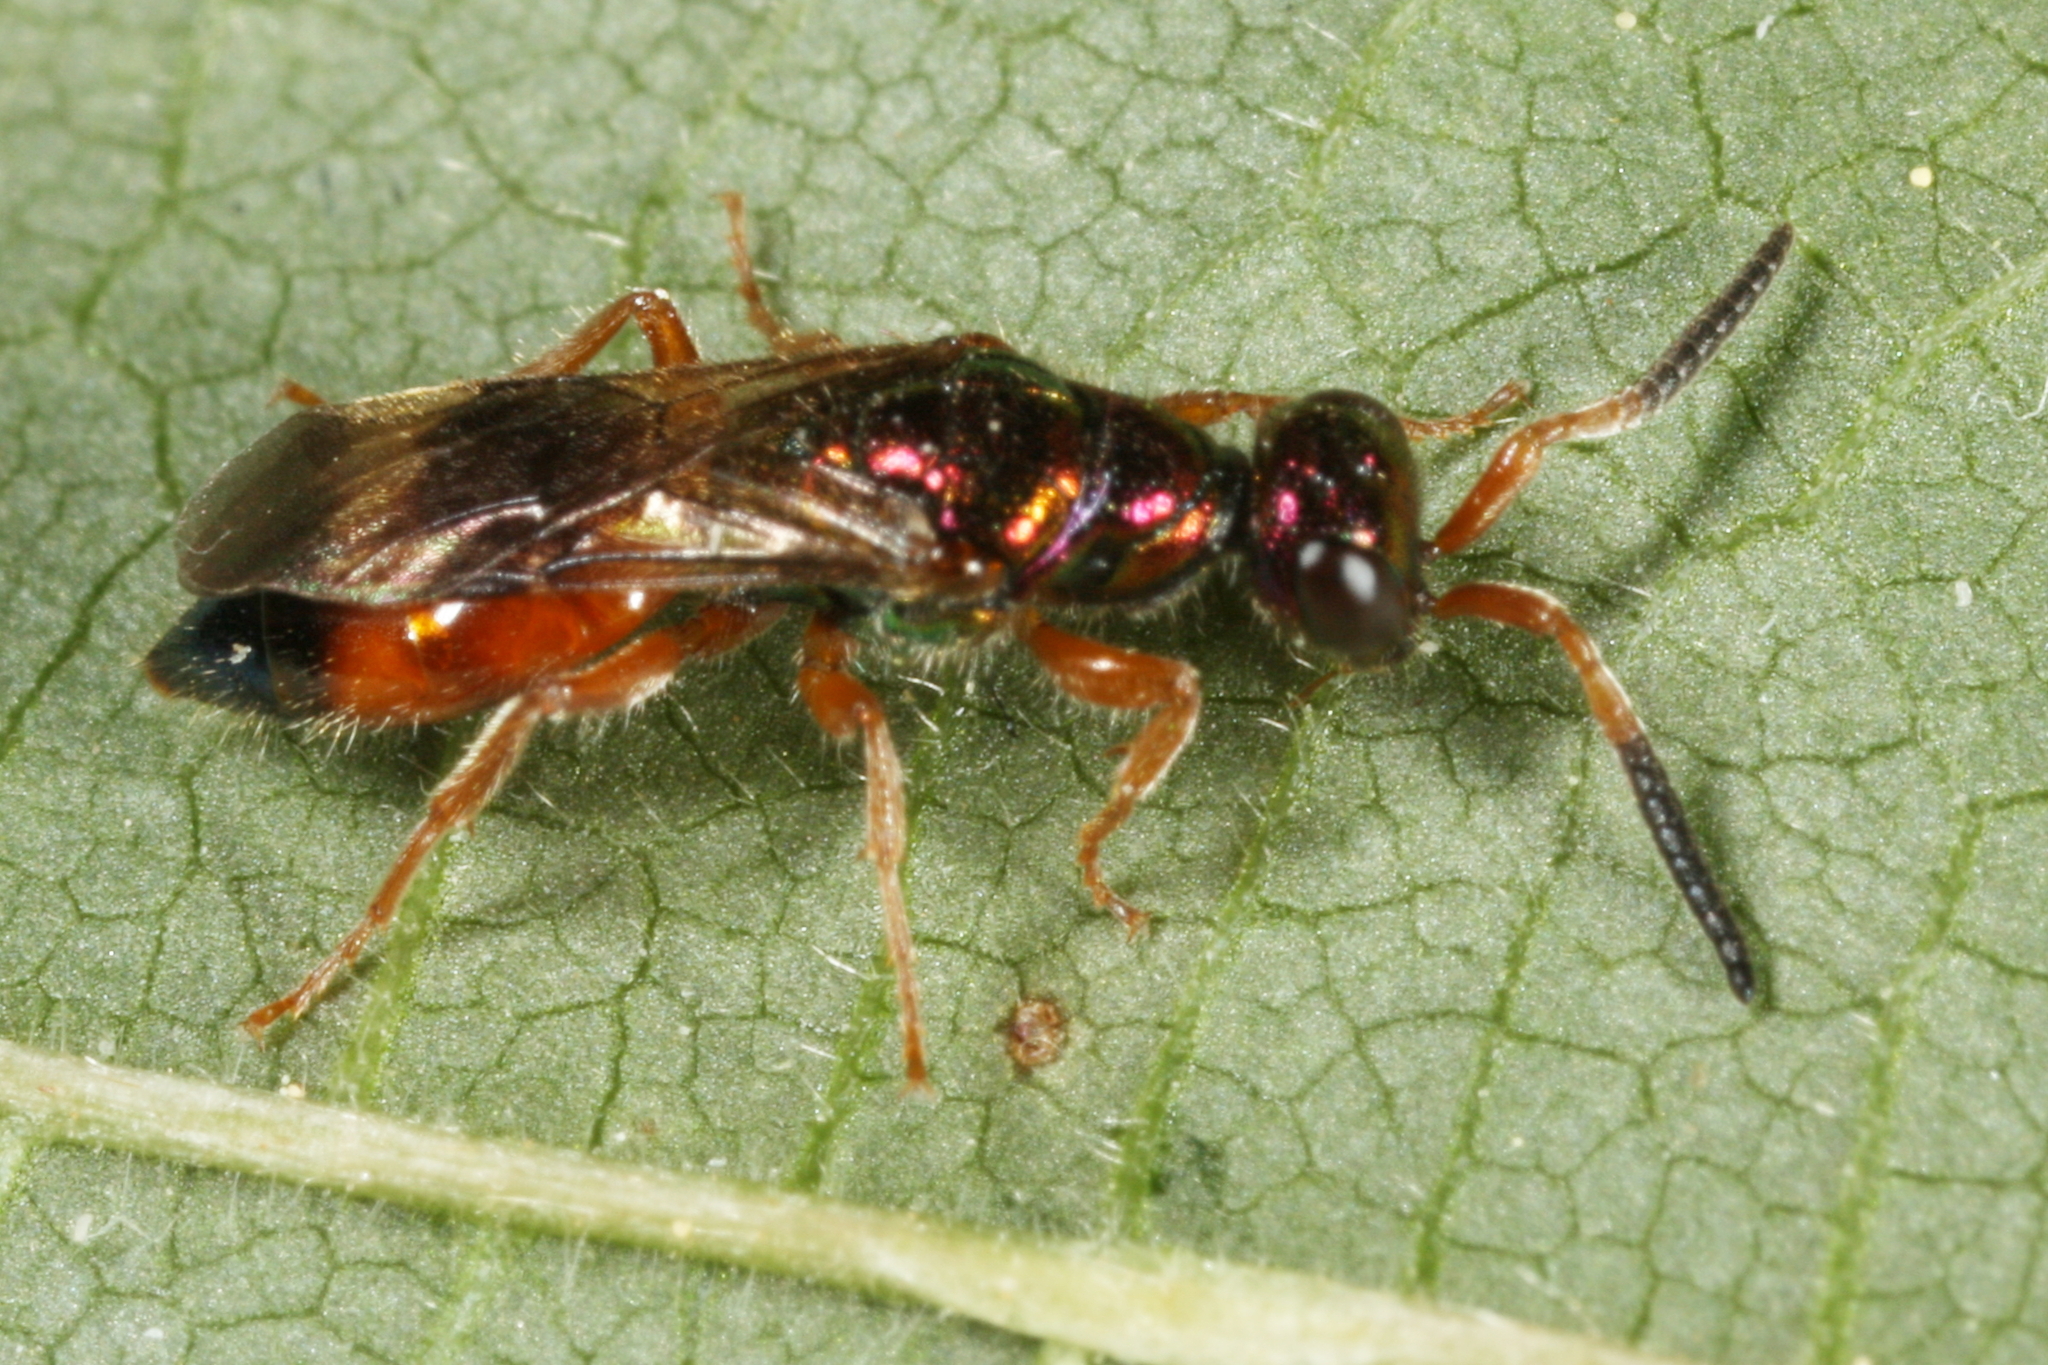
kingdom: Animalia
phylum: Arthropoda
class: Insecta
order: Hymenoptera
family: Chrysididae
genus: Cleptes
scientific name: Cleptes semiauratus
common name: Wasp
